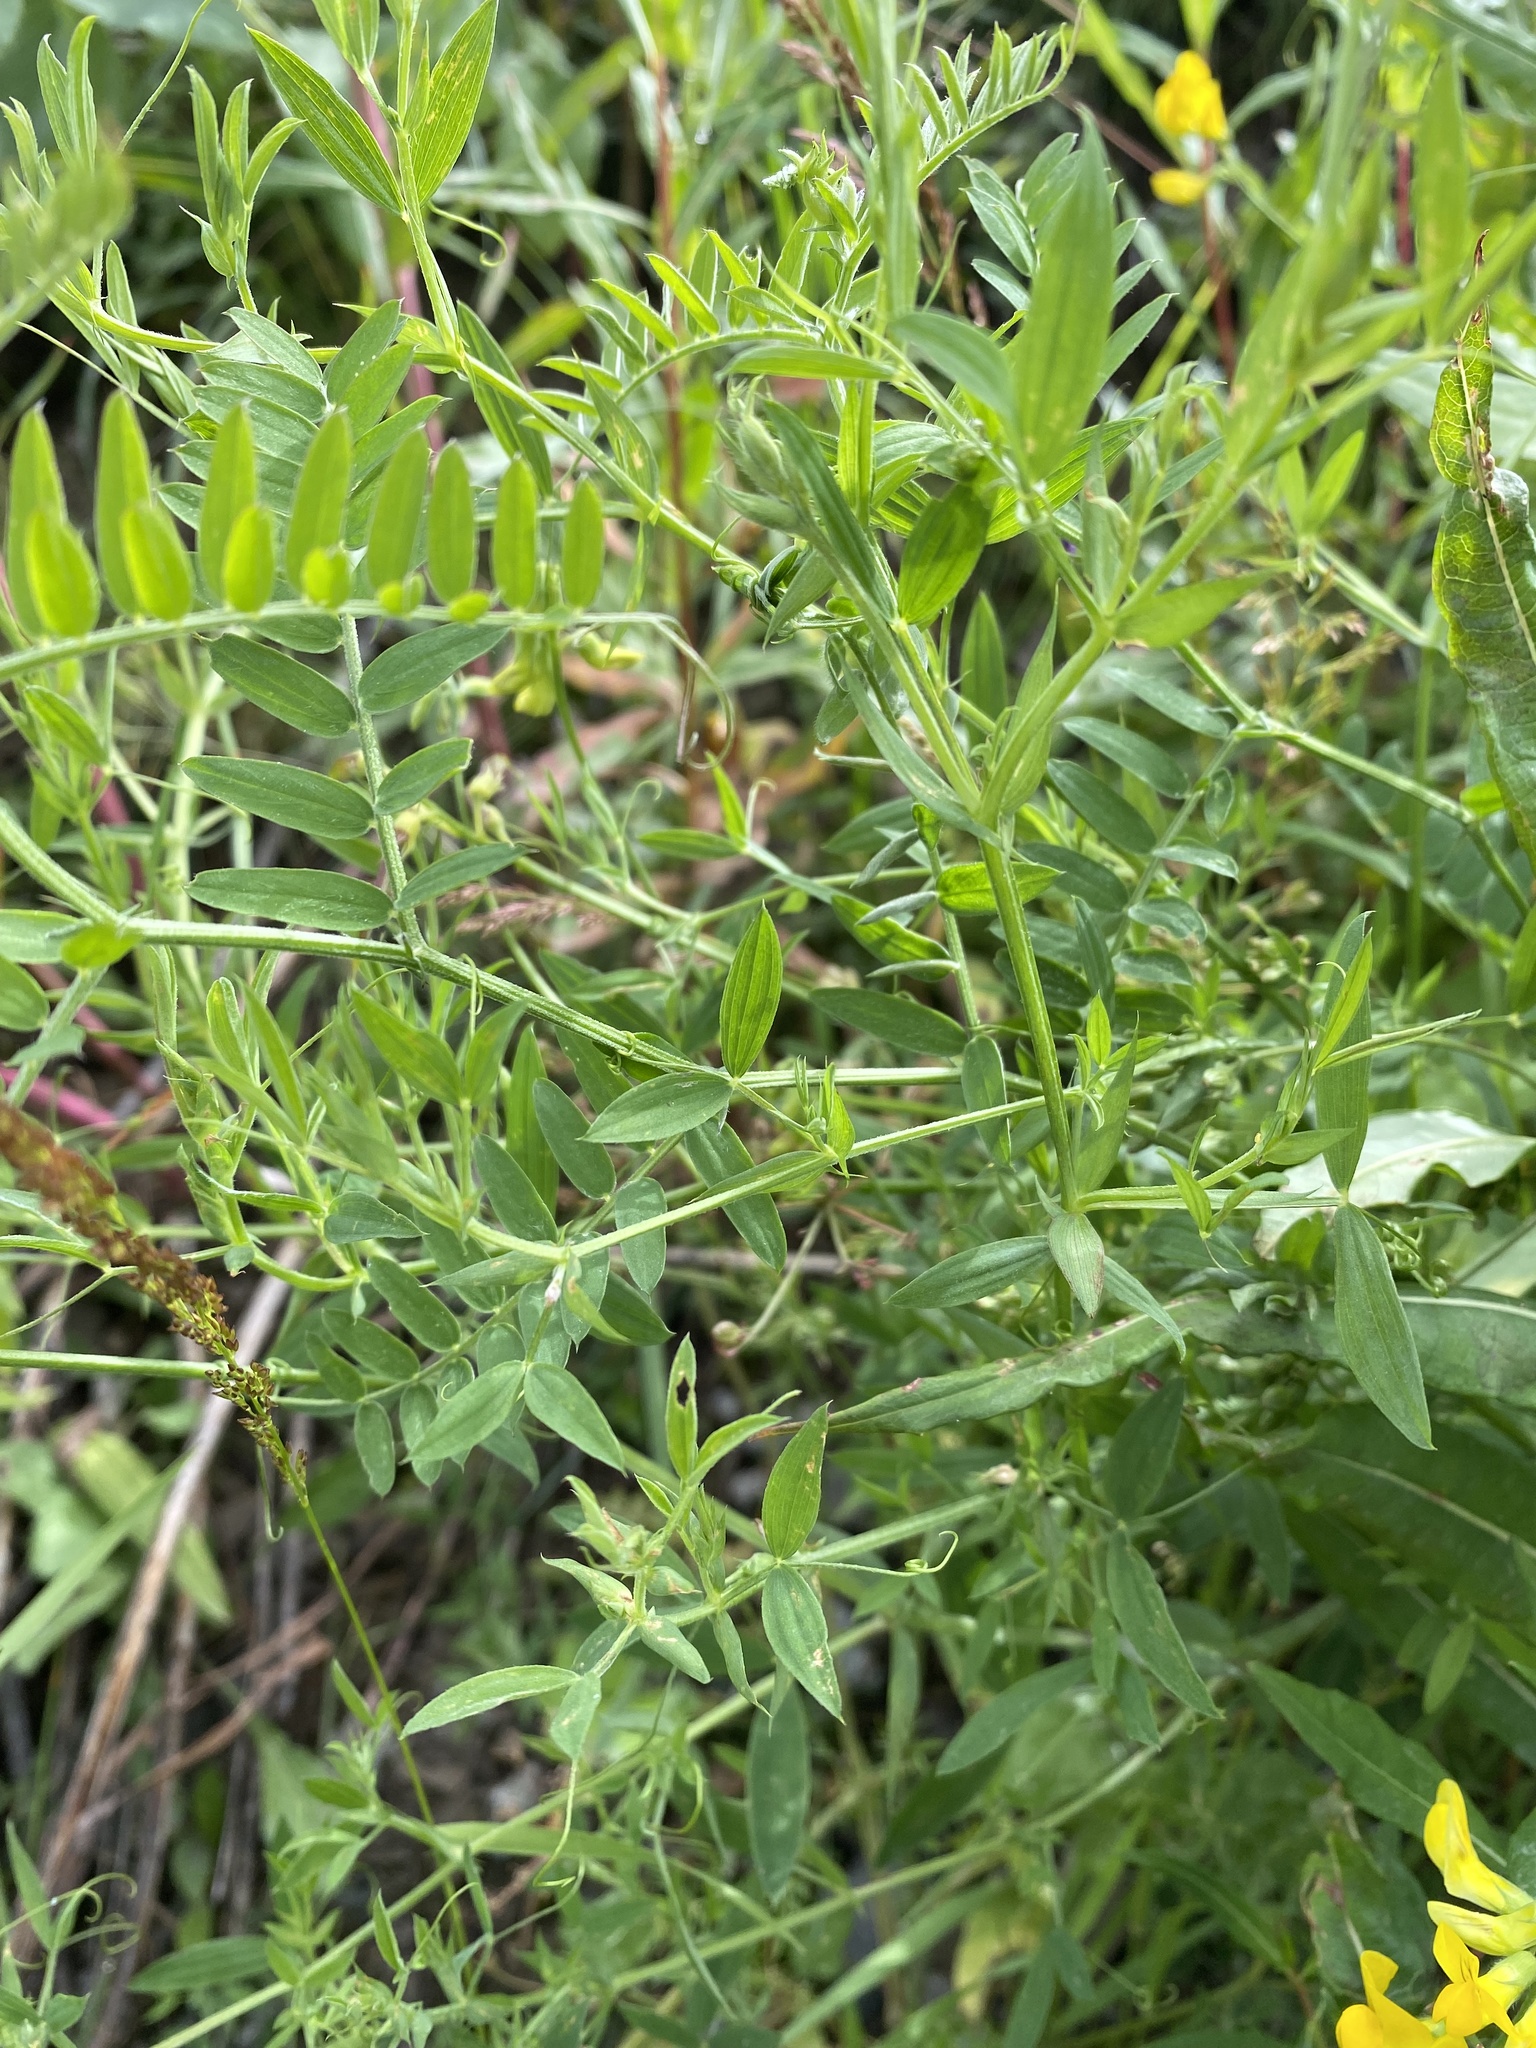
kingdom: Plantae
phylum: Tracheophyta
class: Magnoliopsida
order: Fabales
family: Fabaceae
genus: Lathyrus
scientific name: Lathyrus pratensis
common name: Meadow vetchling
